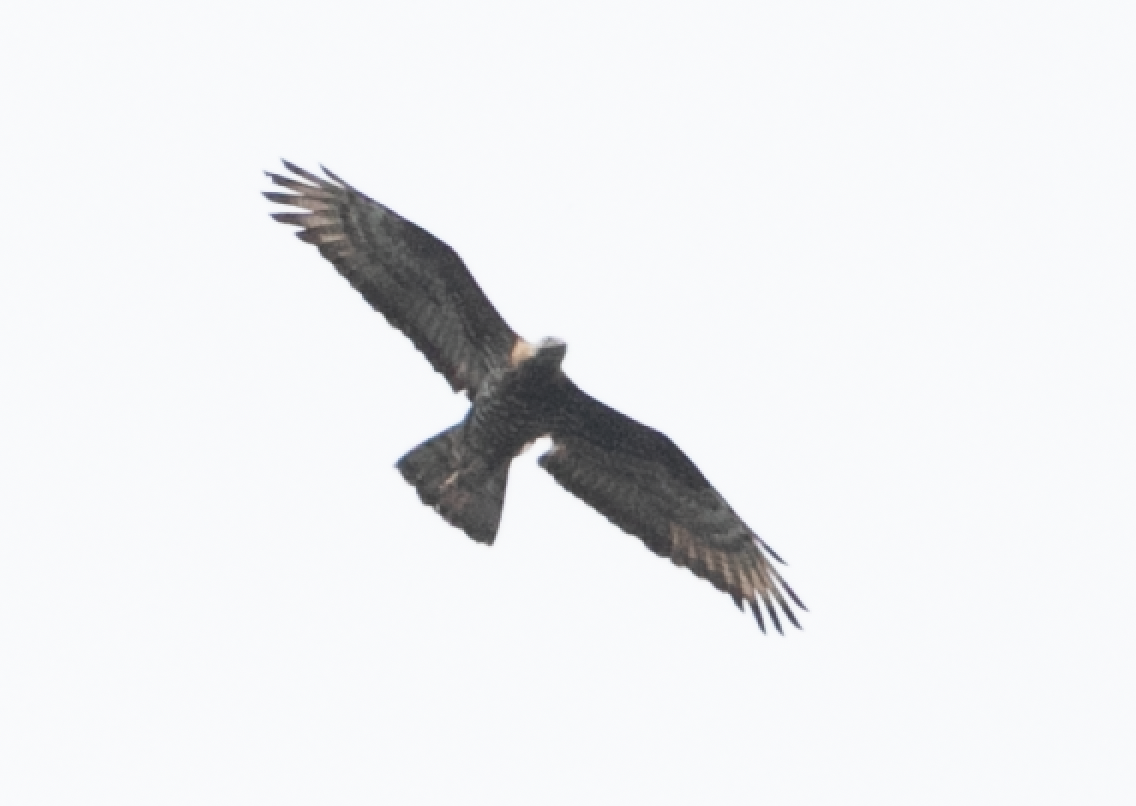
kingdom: Animalia
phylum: Chordata
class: Aves
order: Accipitriformes
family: Accipitridae
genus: Pernis
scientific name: Pernis apivorus
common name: European honey buzzard
